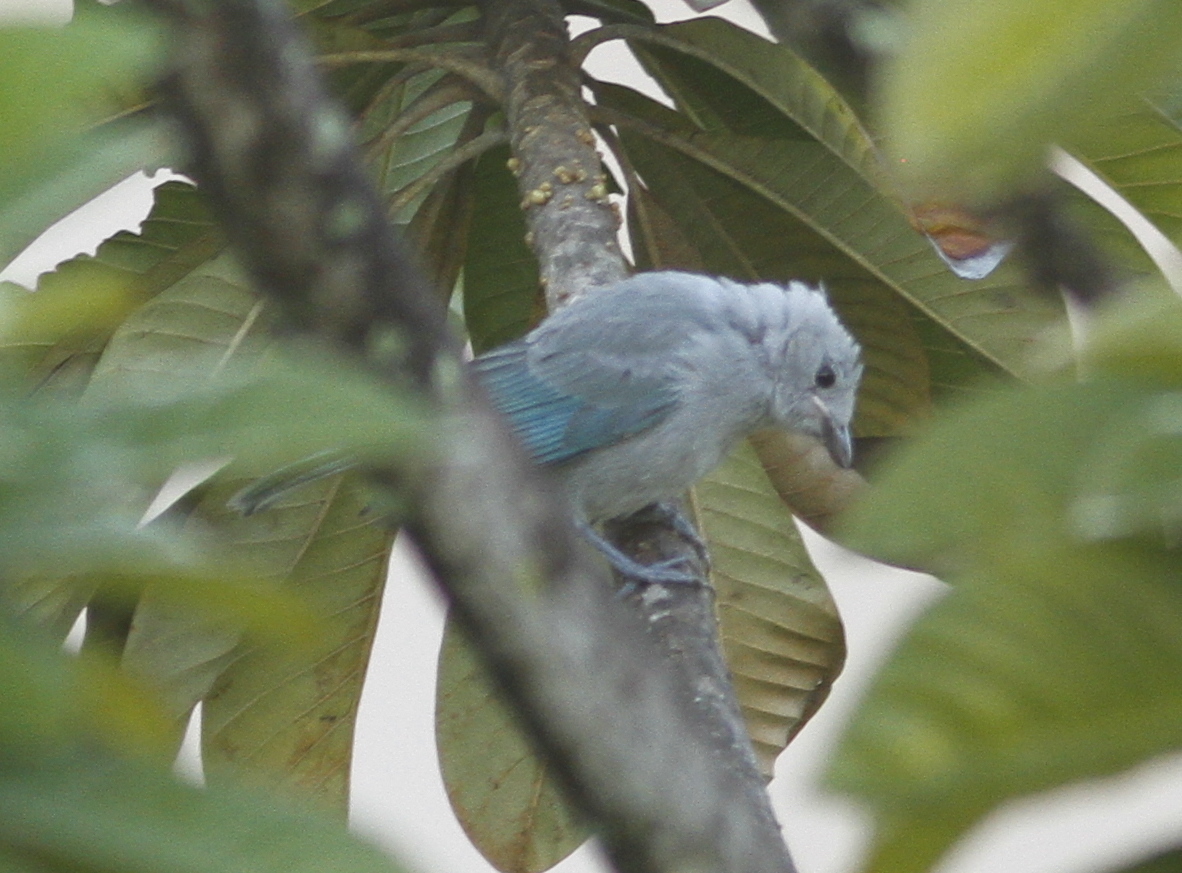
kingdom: Animalia
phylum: Chordata
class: Aves
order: Passeriformes
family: Thraupidae
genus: Thraupis
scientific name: Thraupis episcopus
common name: Blue-grey tanager
